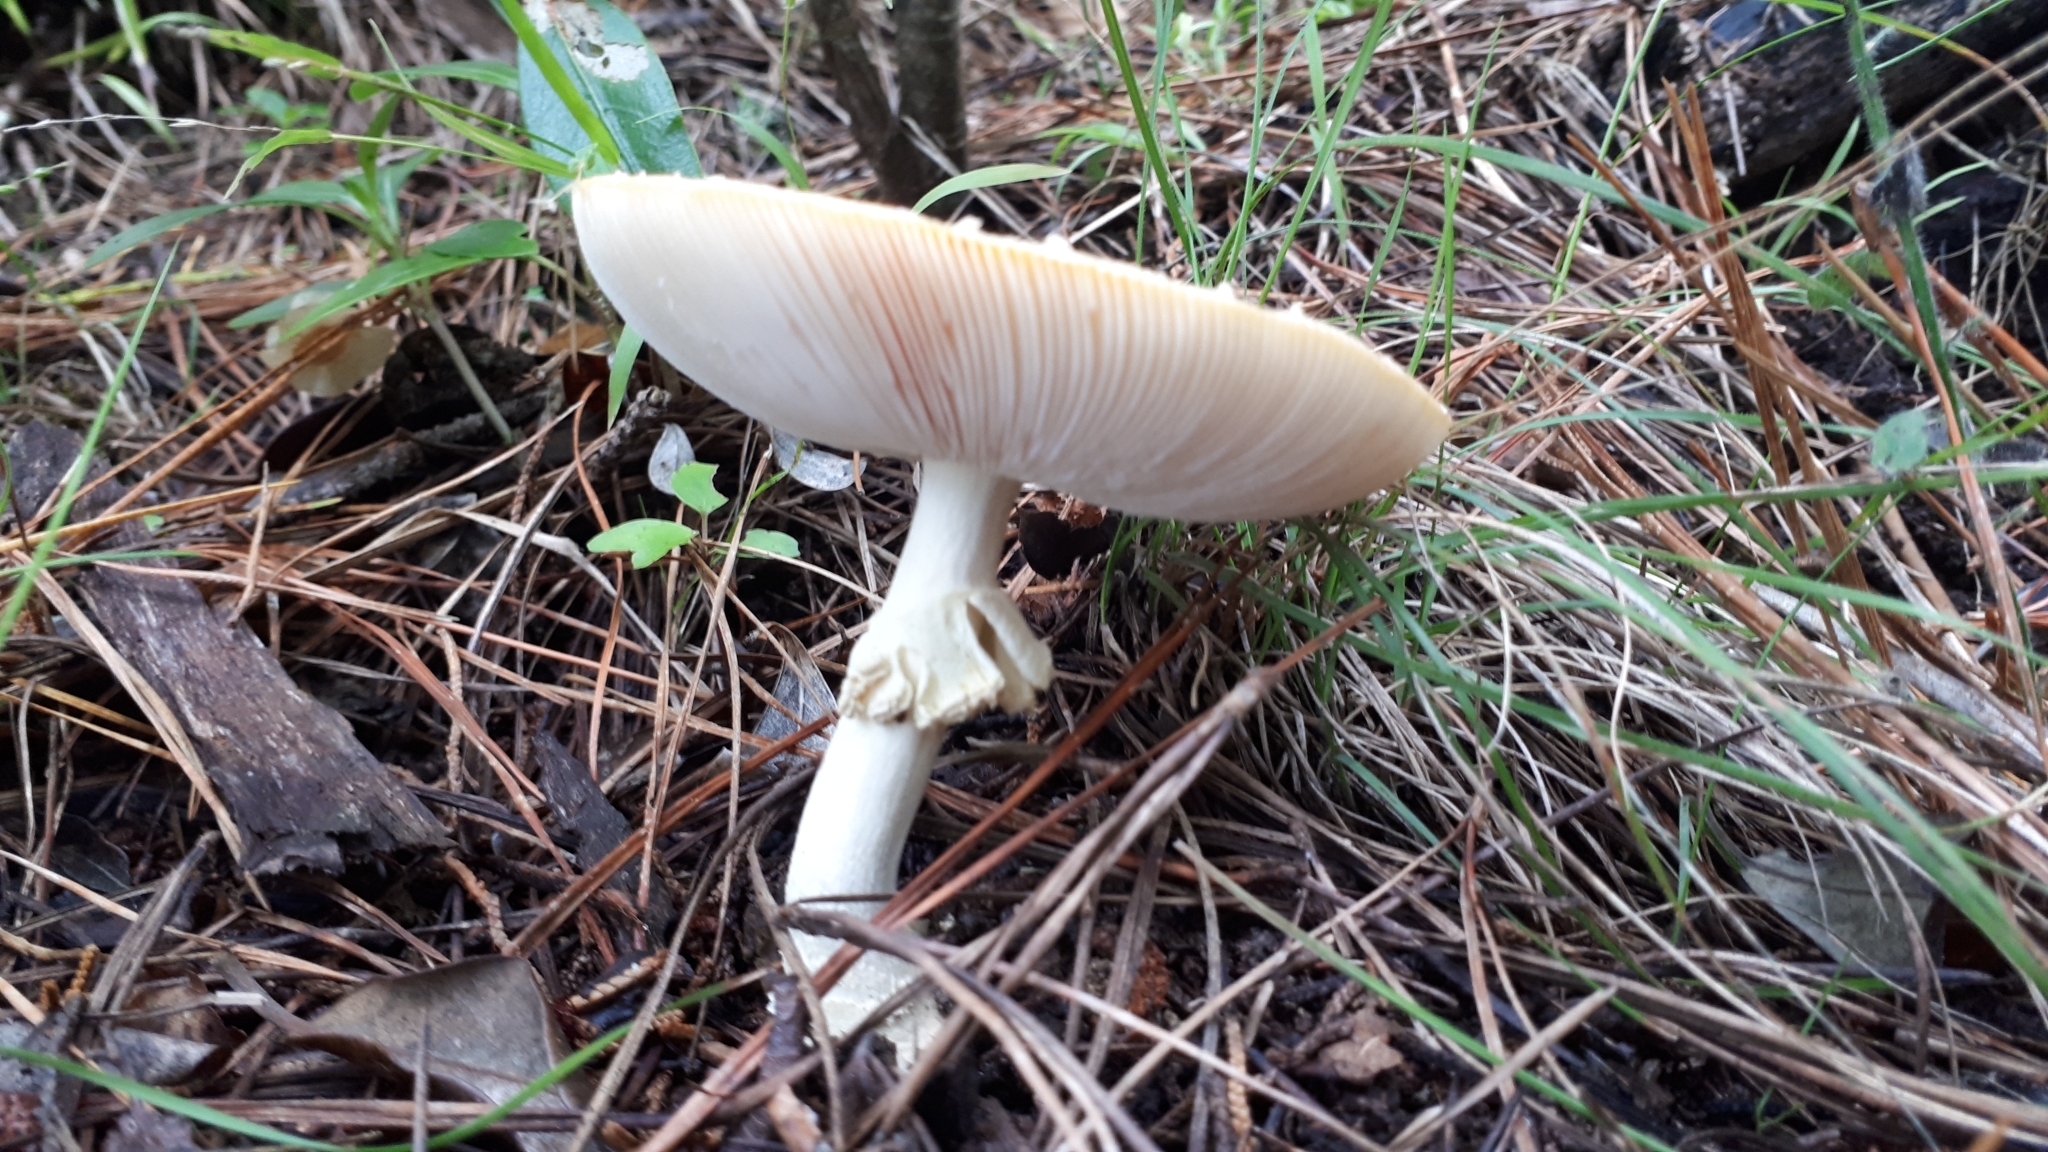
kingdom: Fungi
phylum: Basidiomycota
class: Agaricomycetes
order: Agaricales
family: Amanitaceae
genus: Amanita
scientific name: Amanita muscaria
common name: Fly agaric
